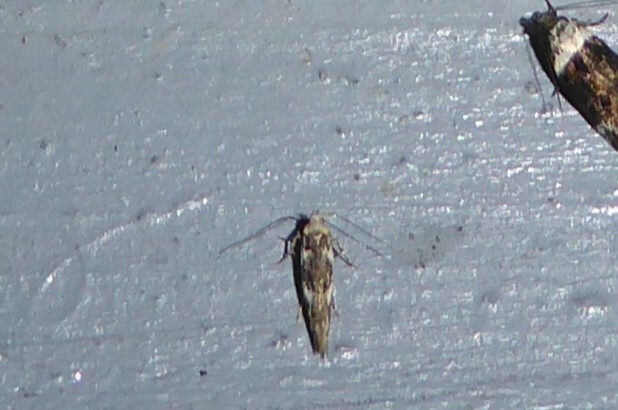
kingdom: Animalia
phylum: Arthropoda
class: Insecta
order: Lepidoptera
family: Cosmopterigidae
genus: Pyroderces
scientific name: Pyroderces deamatella
